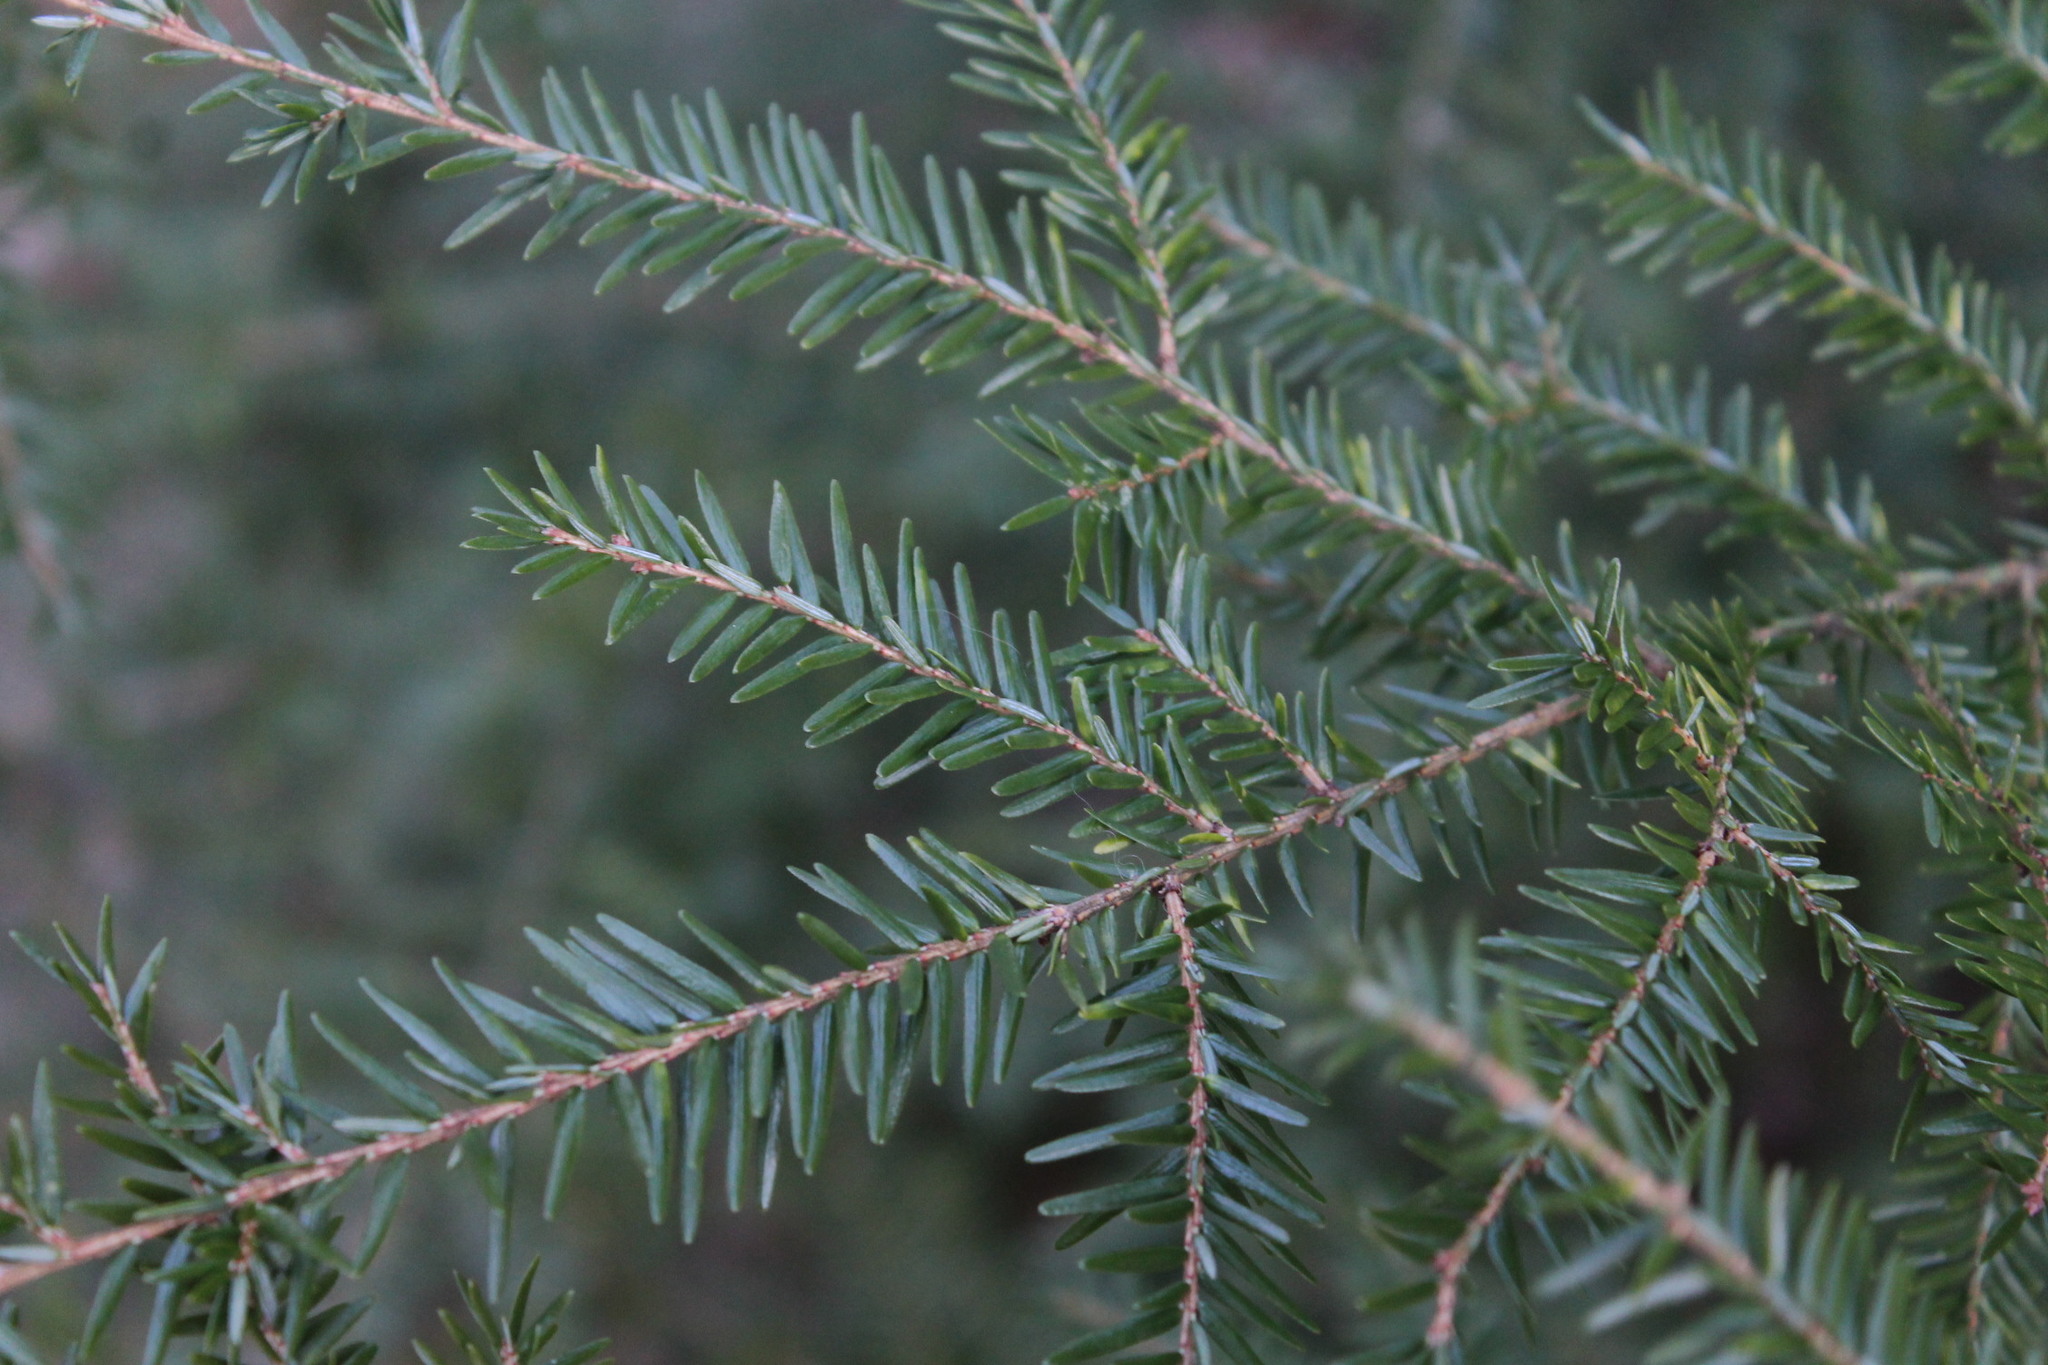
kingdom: Plantae
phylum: Tracheophyta
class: Pinopsida
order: Pinales
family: Pinaceae
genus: Tsuga
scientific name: Tsuga canadensis
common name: Eastern hemlock
